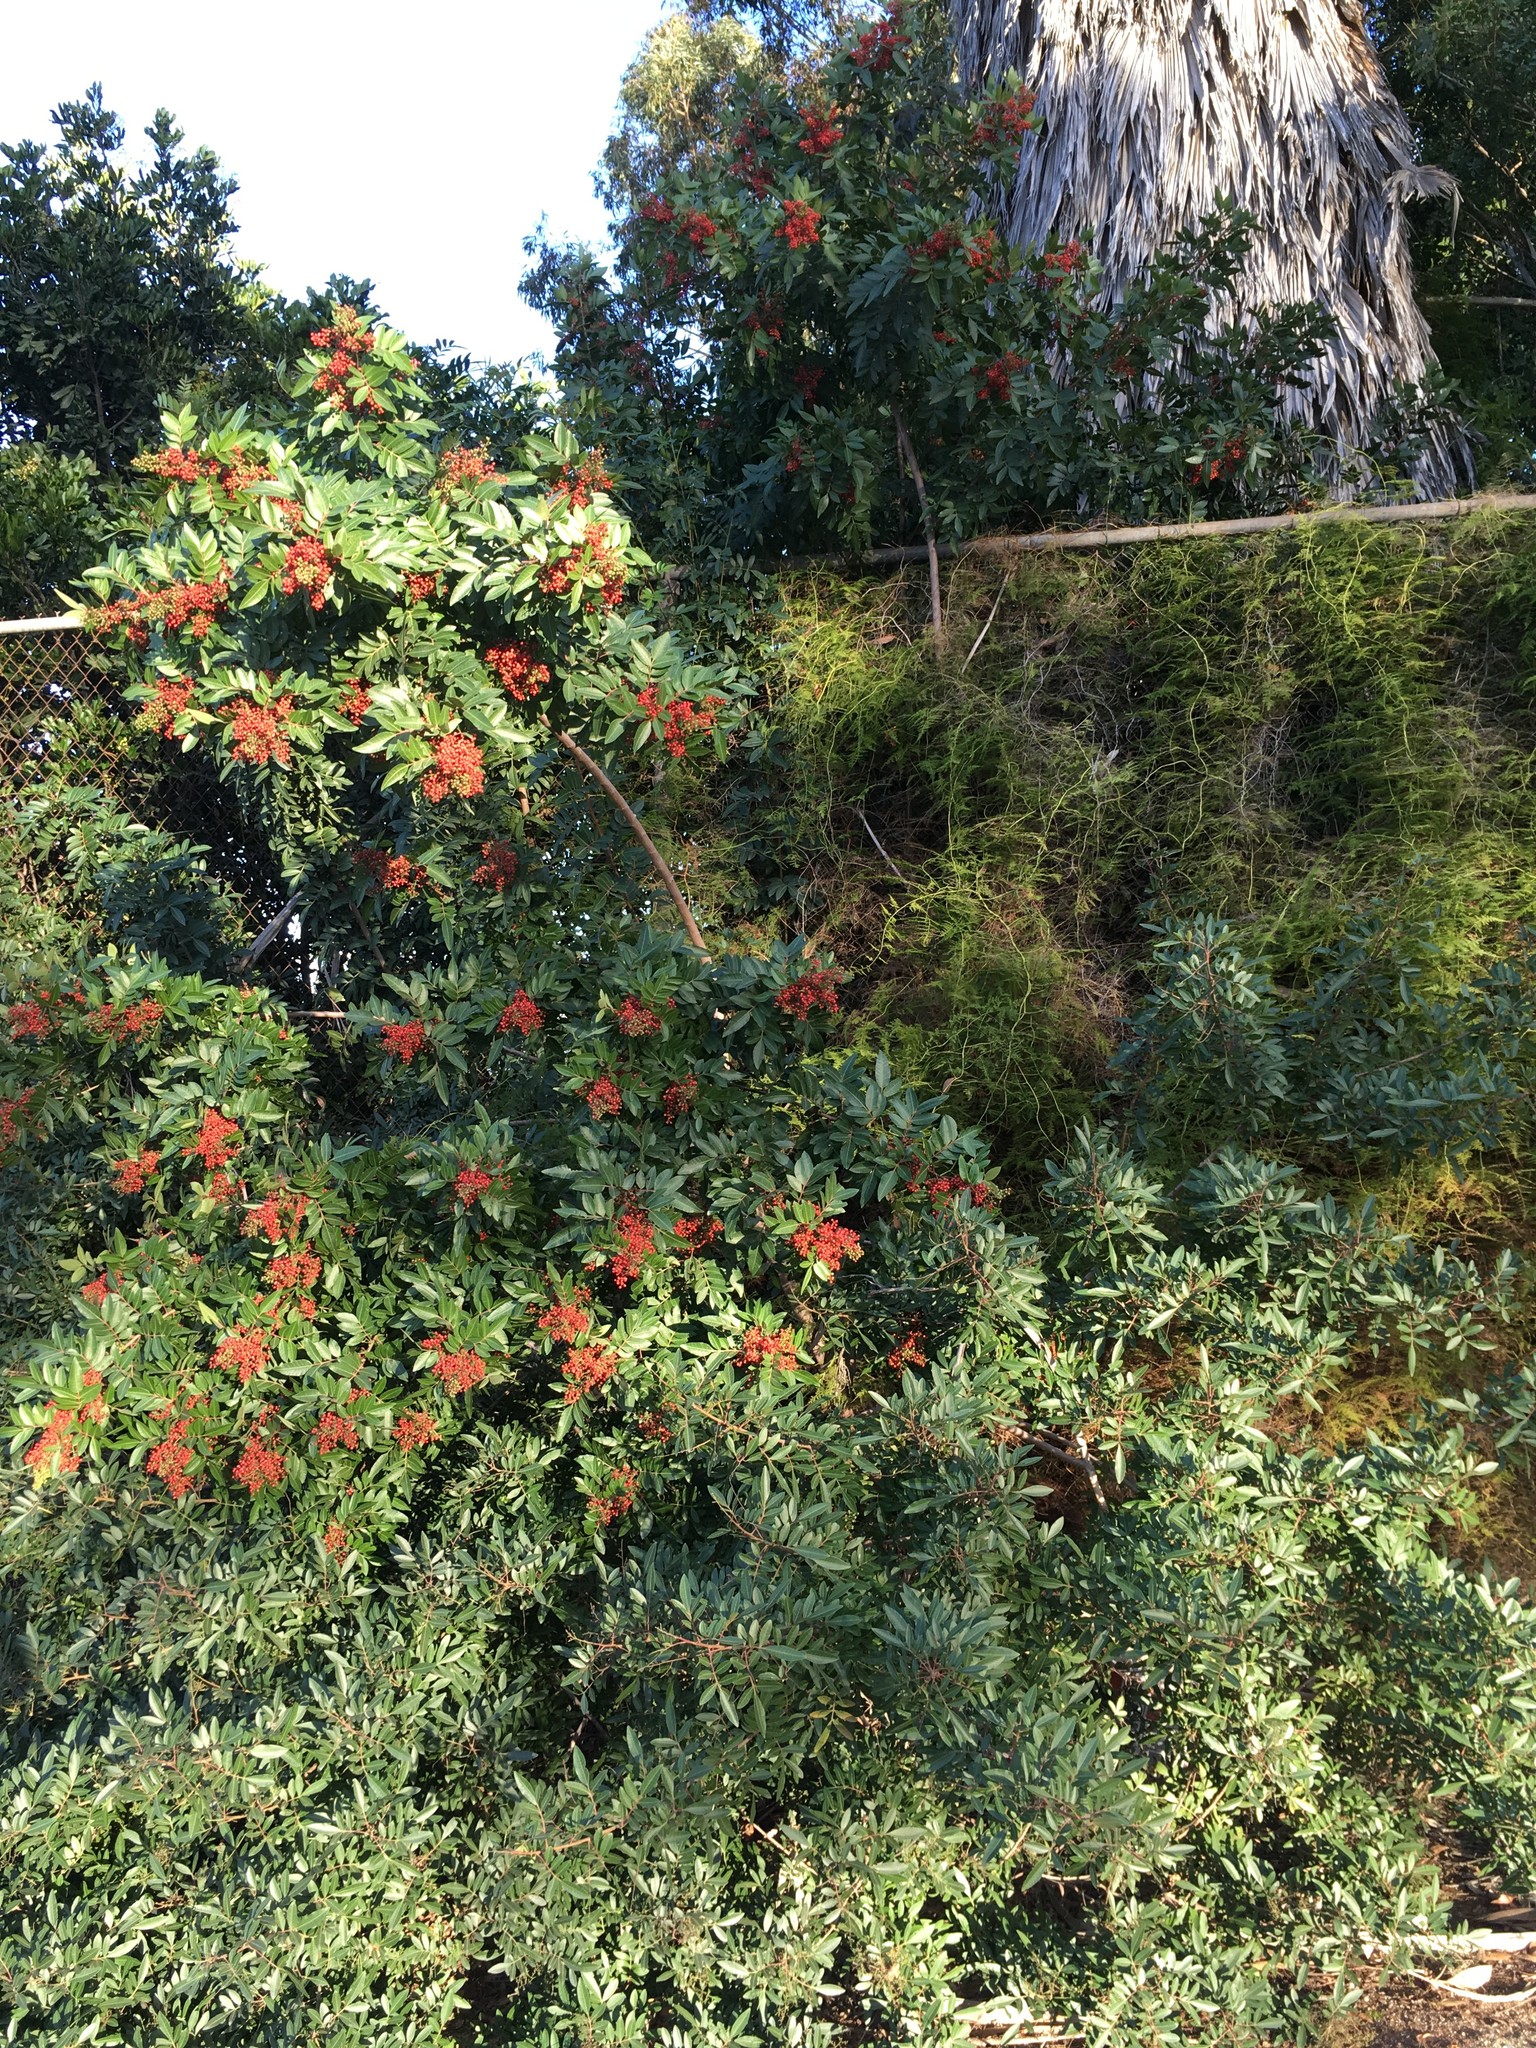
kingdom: Plantae
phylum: Tracheophyta
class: Magnoliopsida
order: Sapindales
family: Anacardiaceae
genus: Schinus
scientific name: Schinus terebinthifolia
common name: Brazilian peppertree
